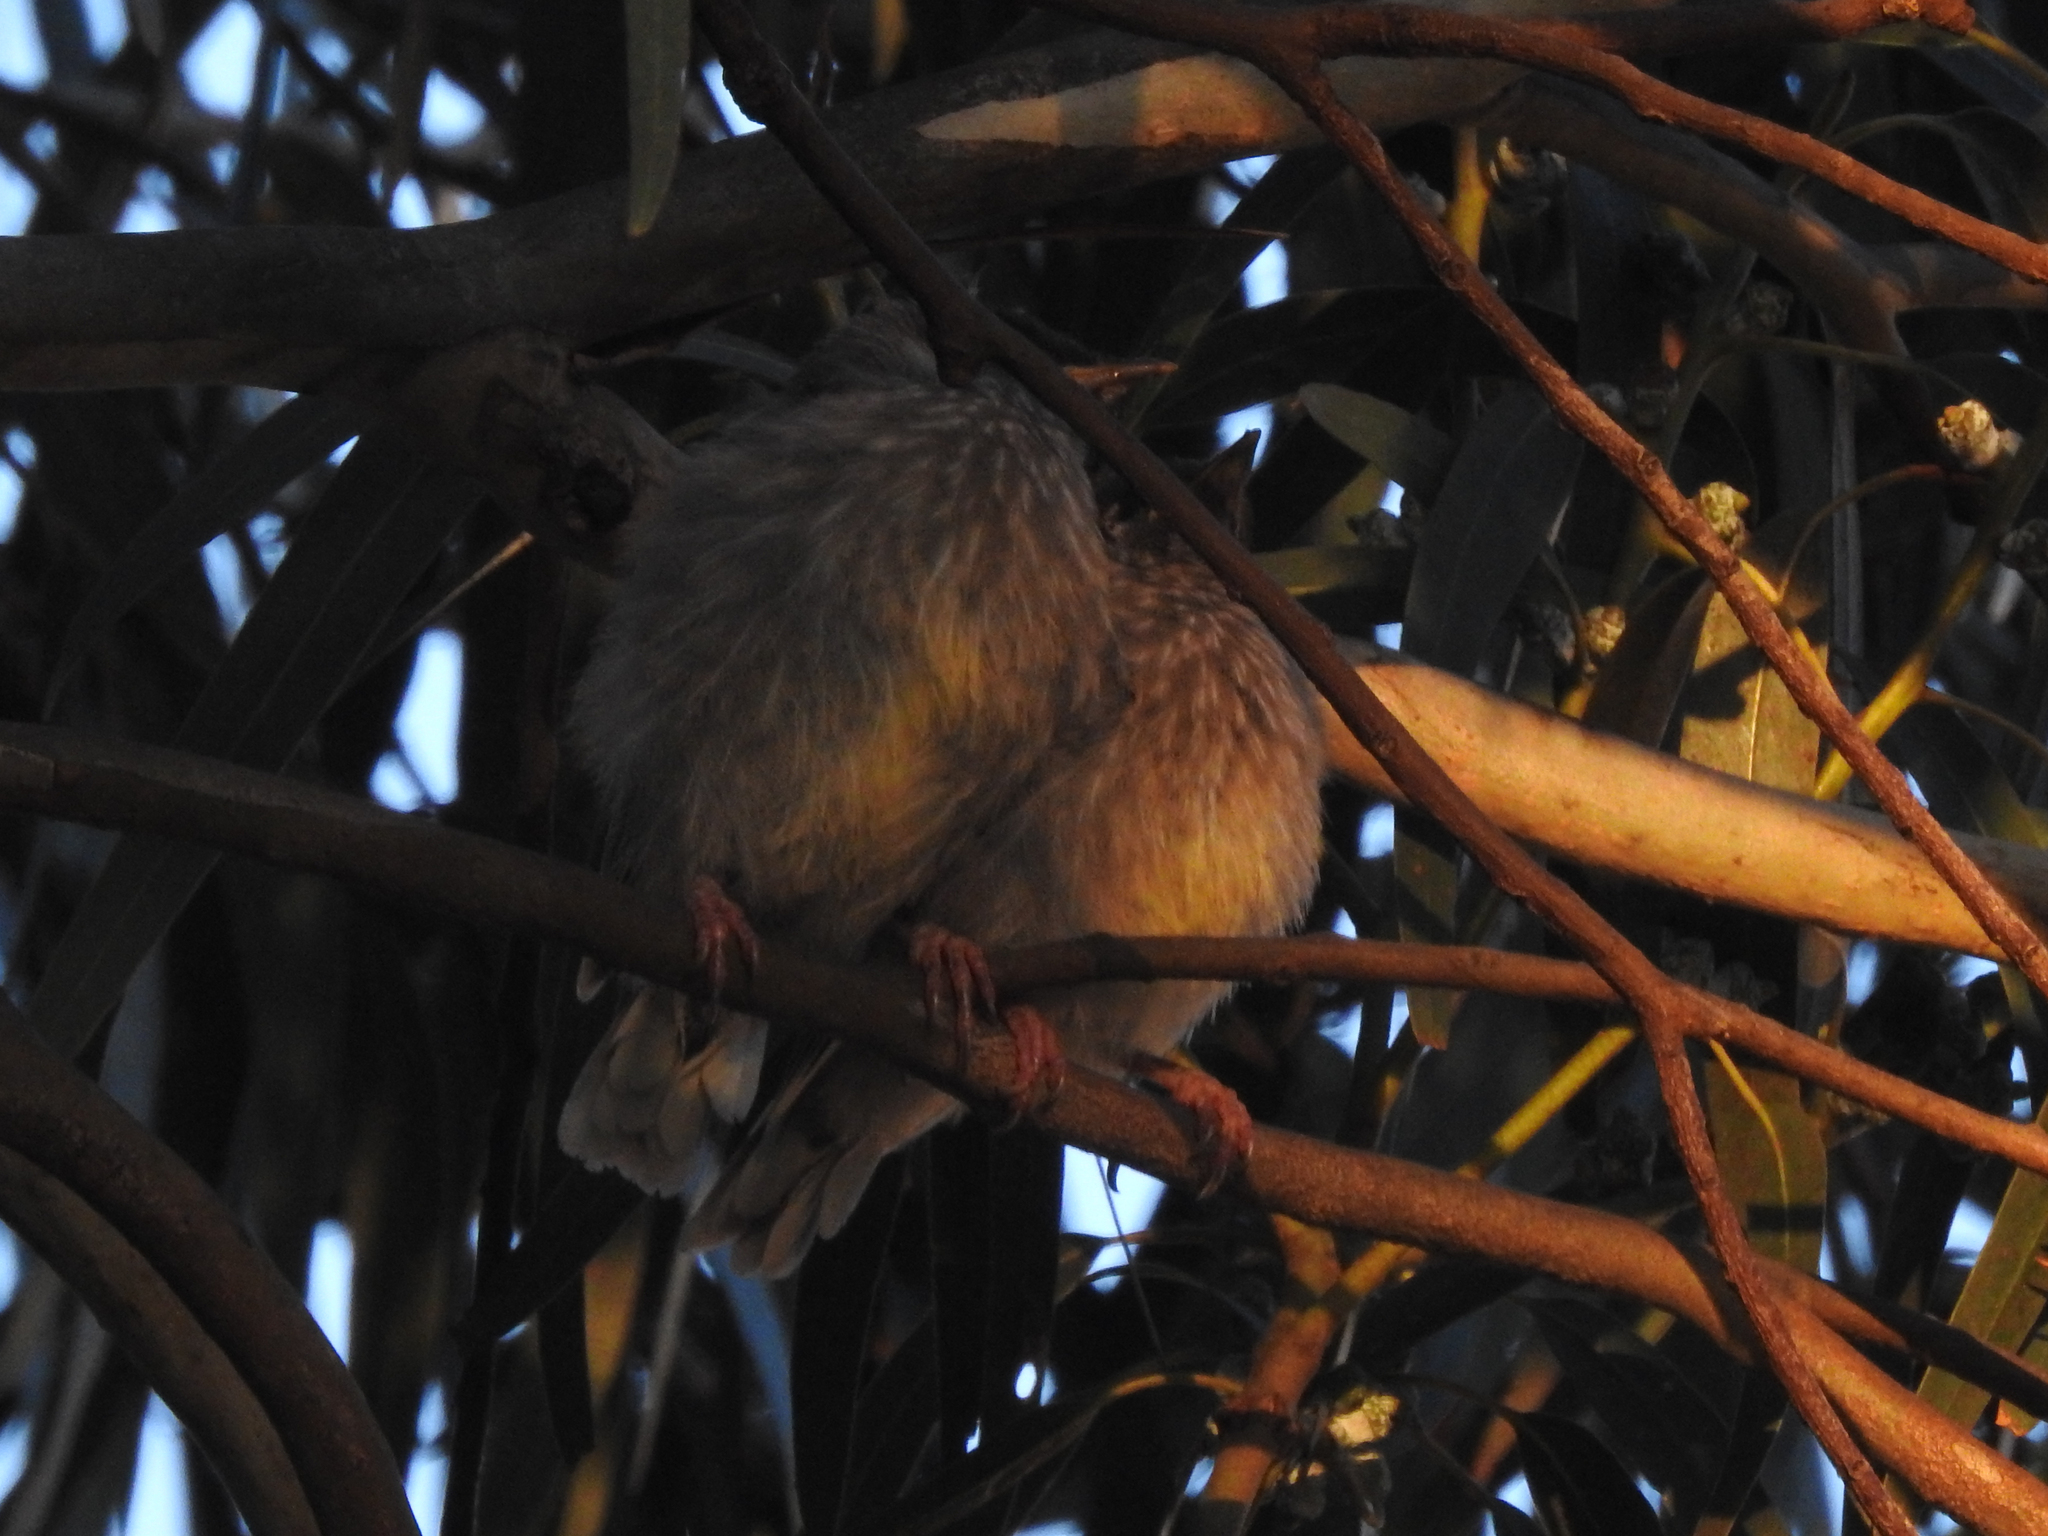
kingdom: Animalia
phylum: Chordata
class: Aves
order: Passeriformes
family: Meliphagidae
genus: Anthochaera
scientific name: Anthochaera carunculata
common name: Red wattlebird
